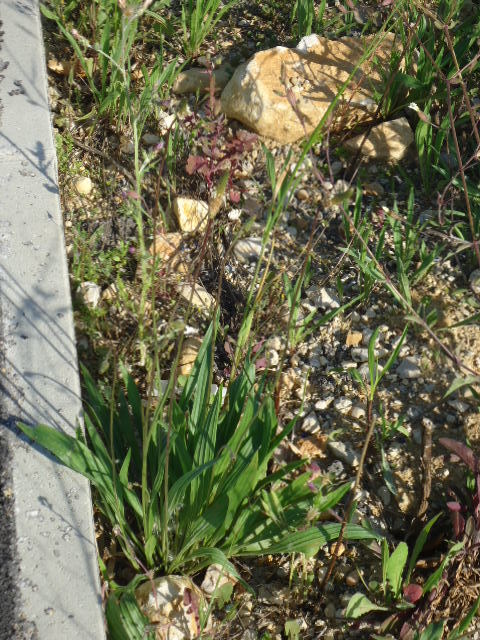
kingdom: Plantae
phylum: Tracheophyta
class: Magnoliopsida
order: Lamiales
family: Plantaginaceae
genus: Plantago
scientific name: Plantago lanceolata
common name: Ribwort plantain
